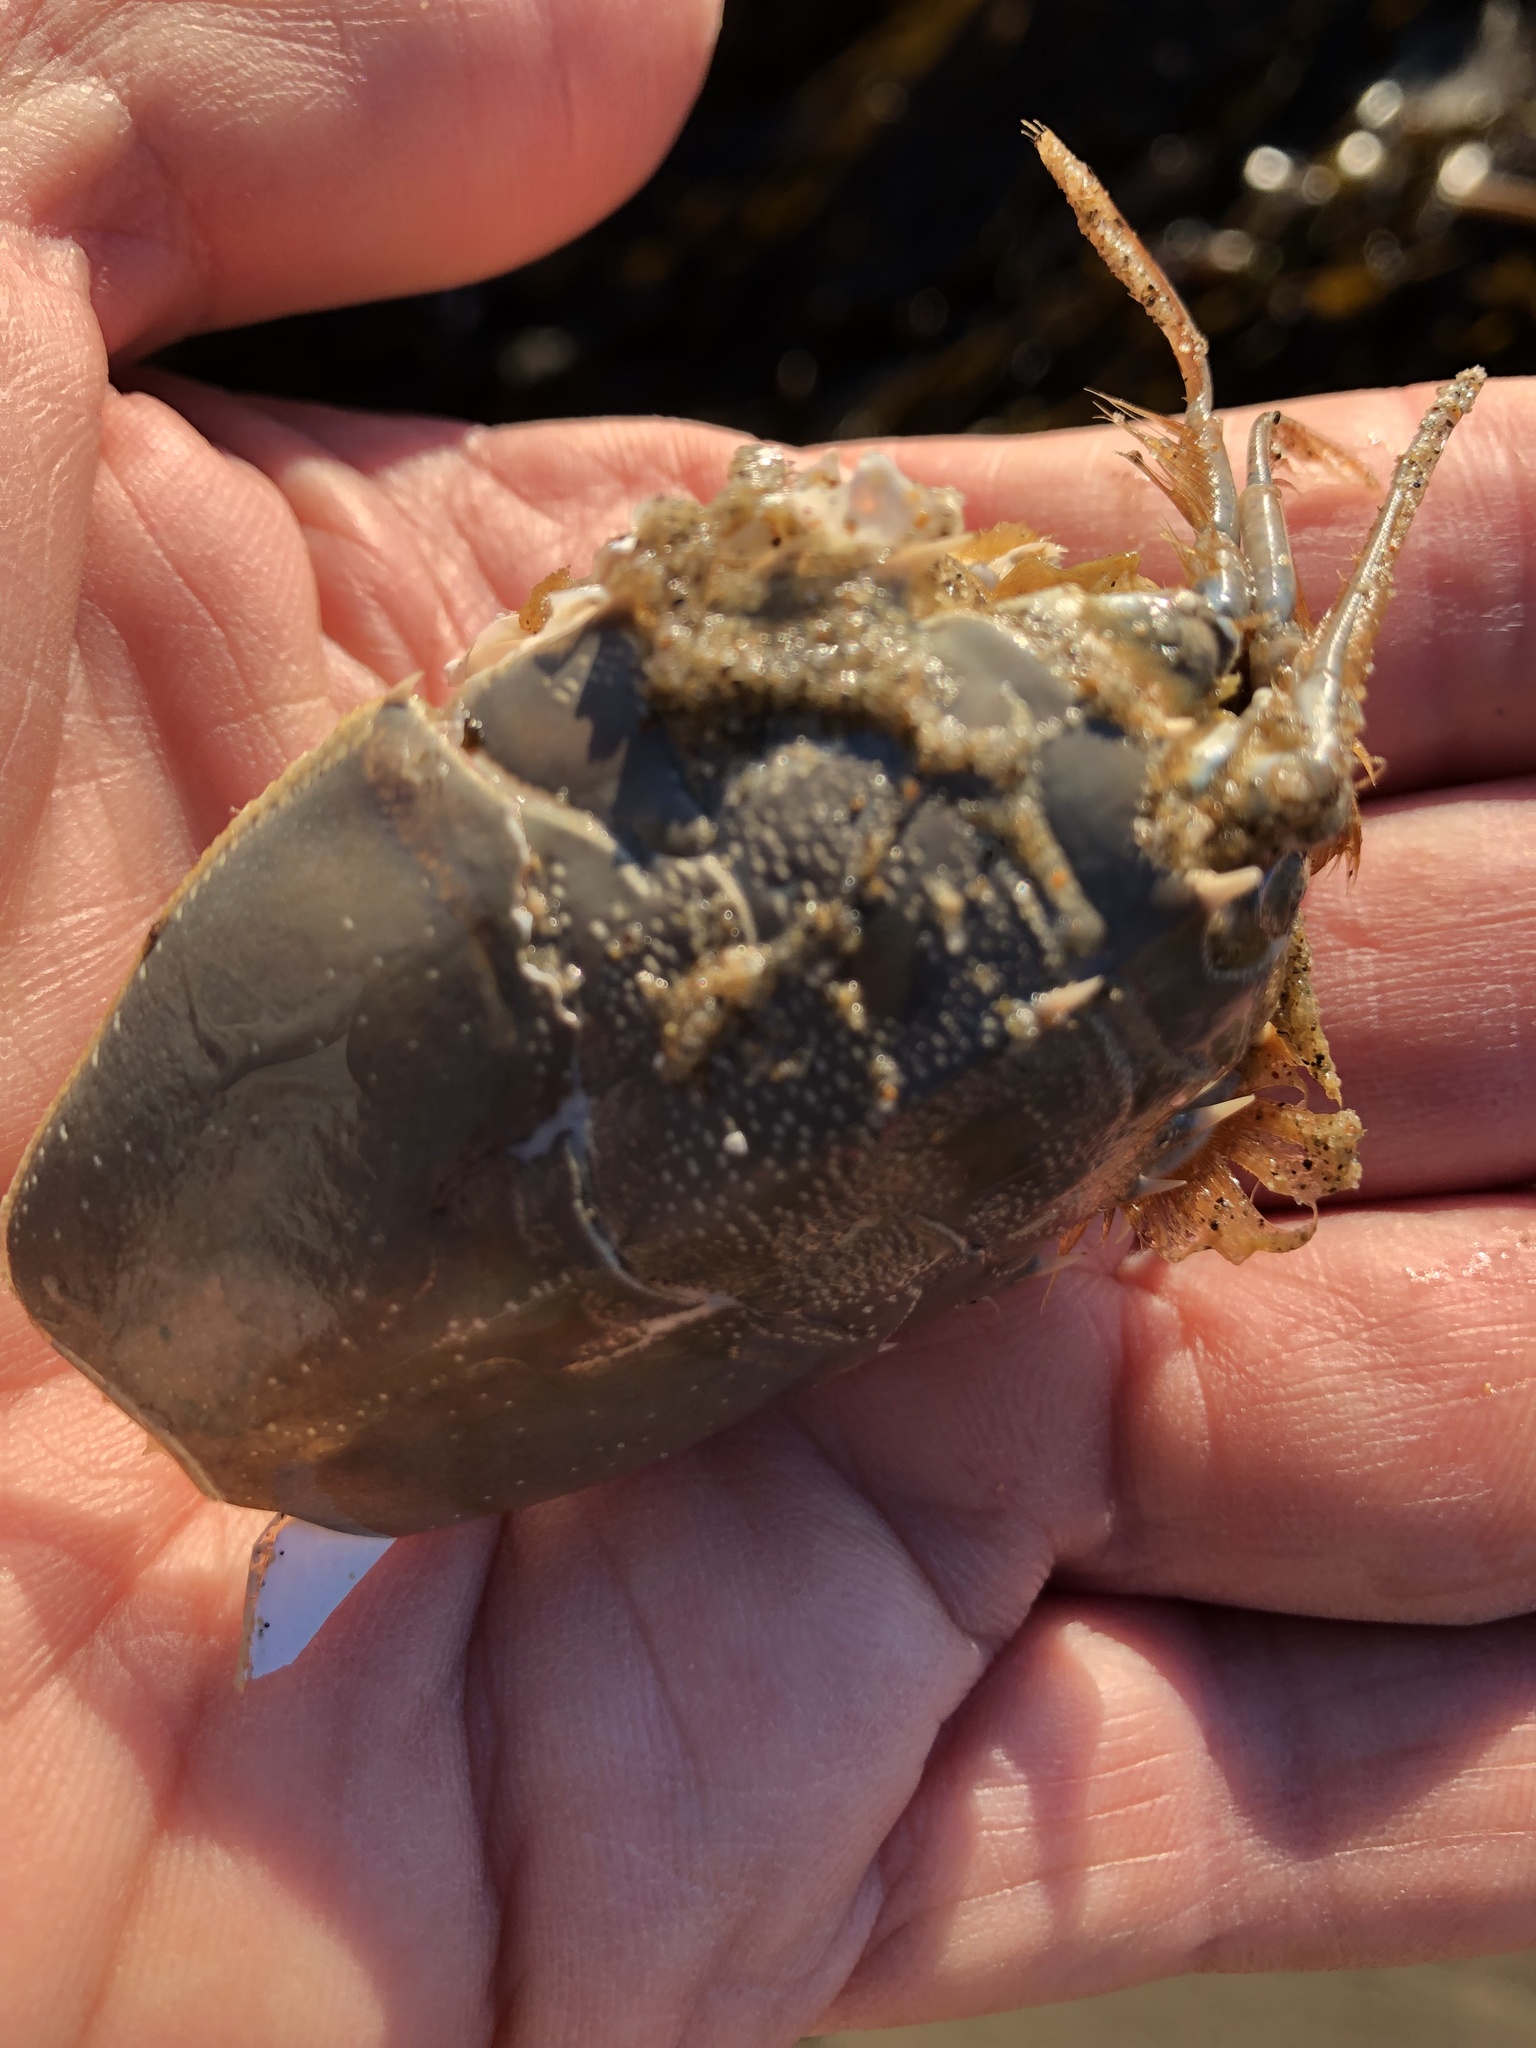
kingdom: Animalia
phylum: Arthropoda
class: Malacostraca
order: Decapoda
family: Blepharipodidae
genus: Blepharipoda
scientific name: Blepharipoda occidentalis
